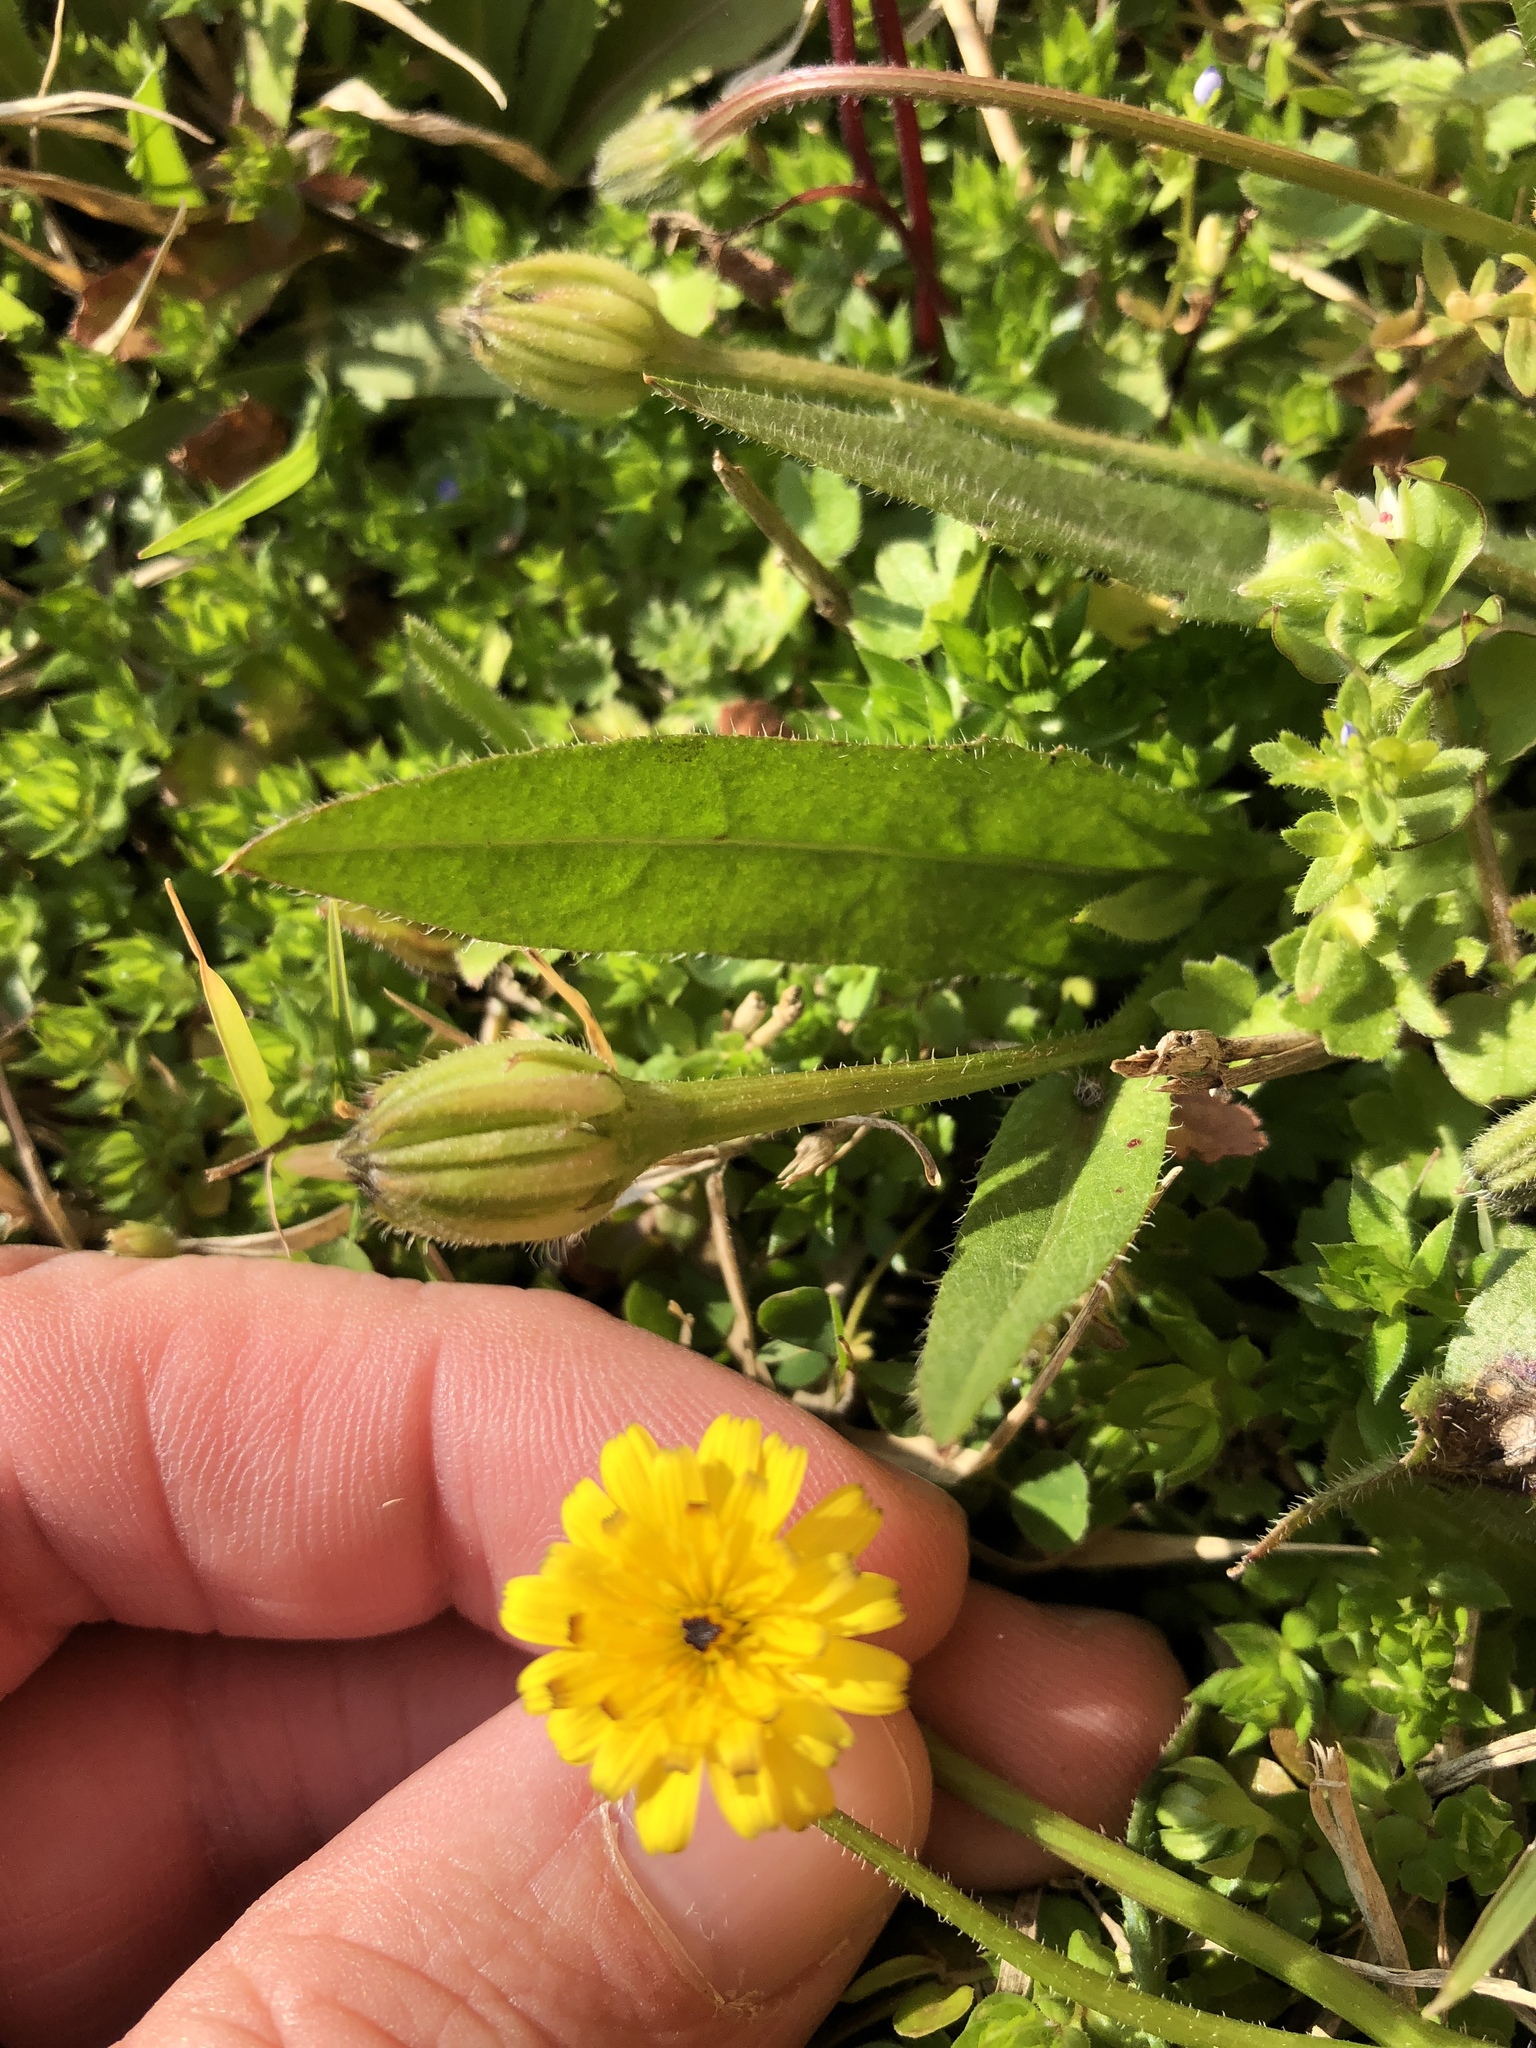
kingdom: Plantae
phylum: Tracheophyta
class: Magnoliopsida
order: Asterales
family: Asteraceae
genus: Hedypnois
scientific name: Hedypnois rhagadioloides
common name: Cretan weed
